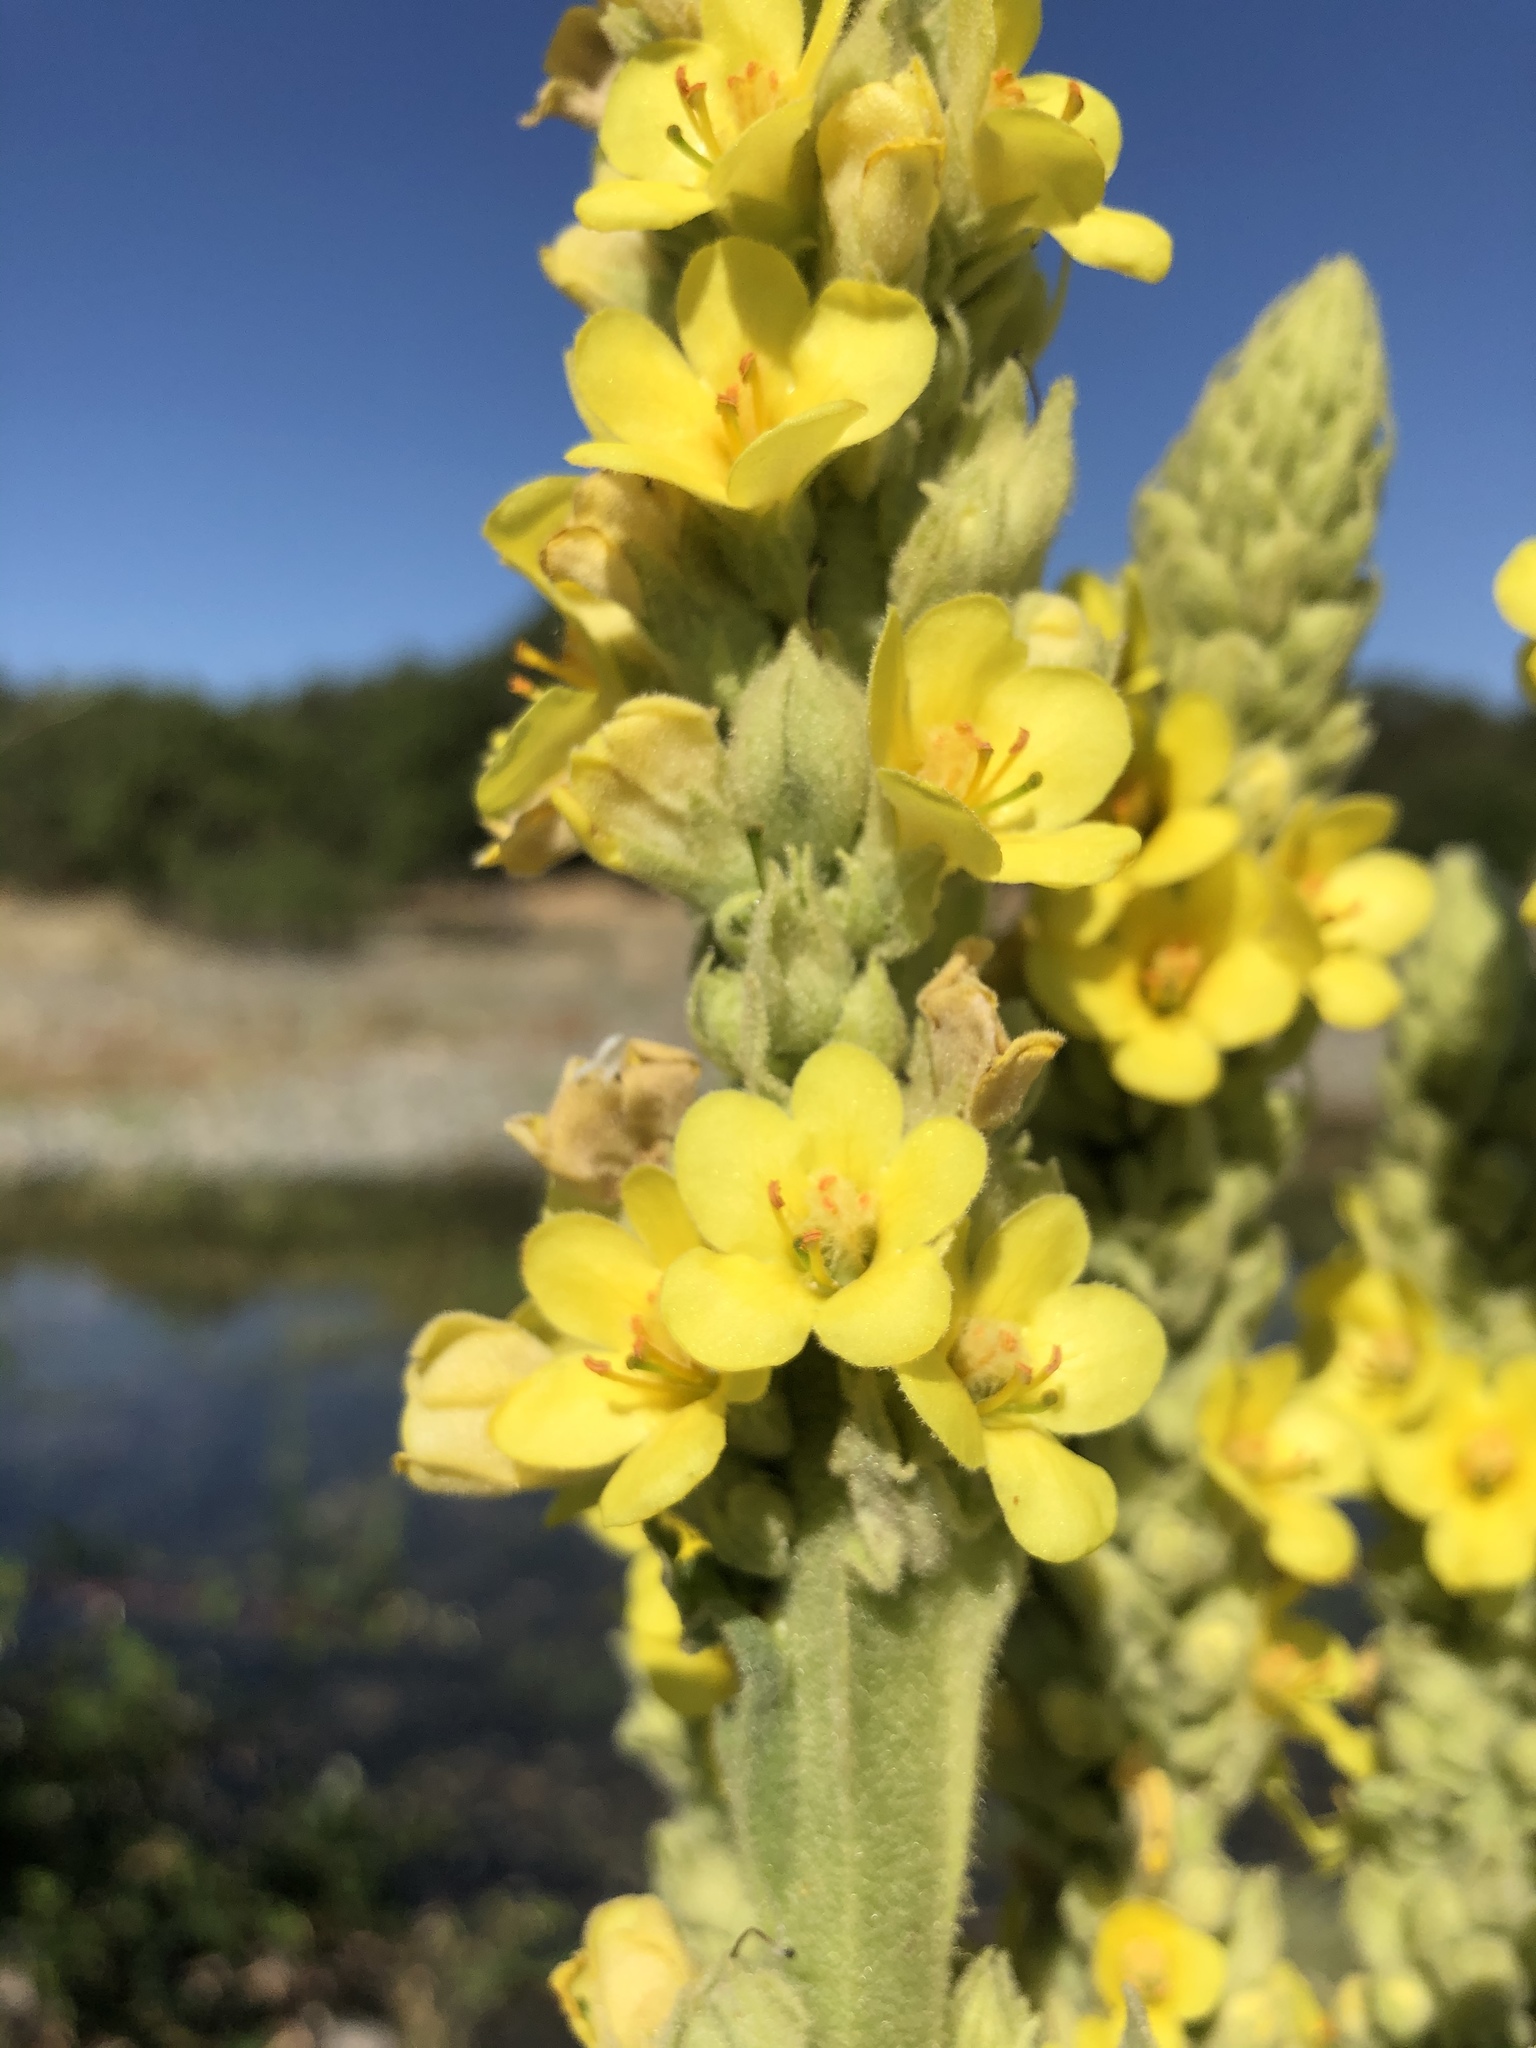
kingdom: Plantae
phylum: Tracheophyta
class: Magnoliopsida
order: Lamiales
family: Scrophulariaceae
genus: Verbascum
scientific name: Verbascum thapsus
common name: Common mullein
